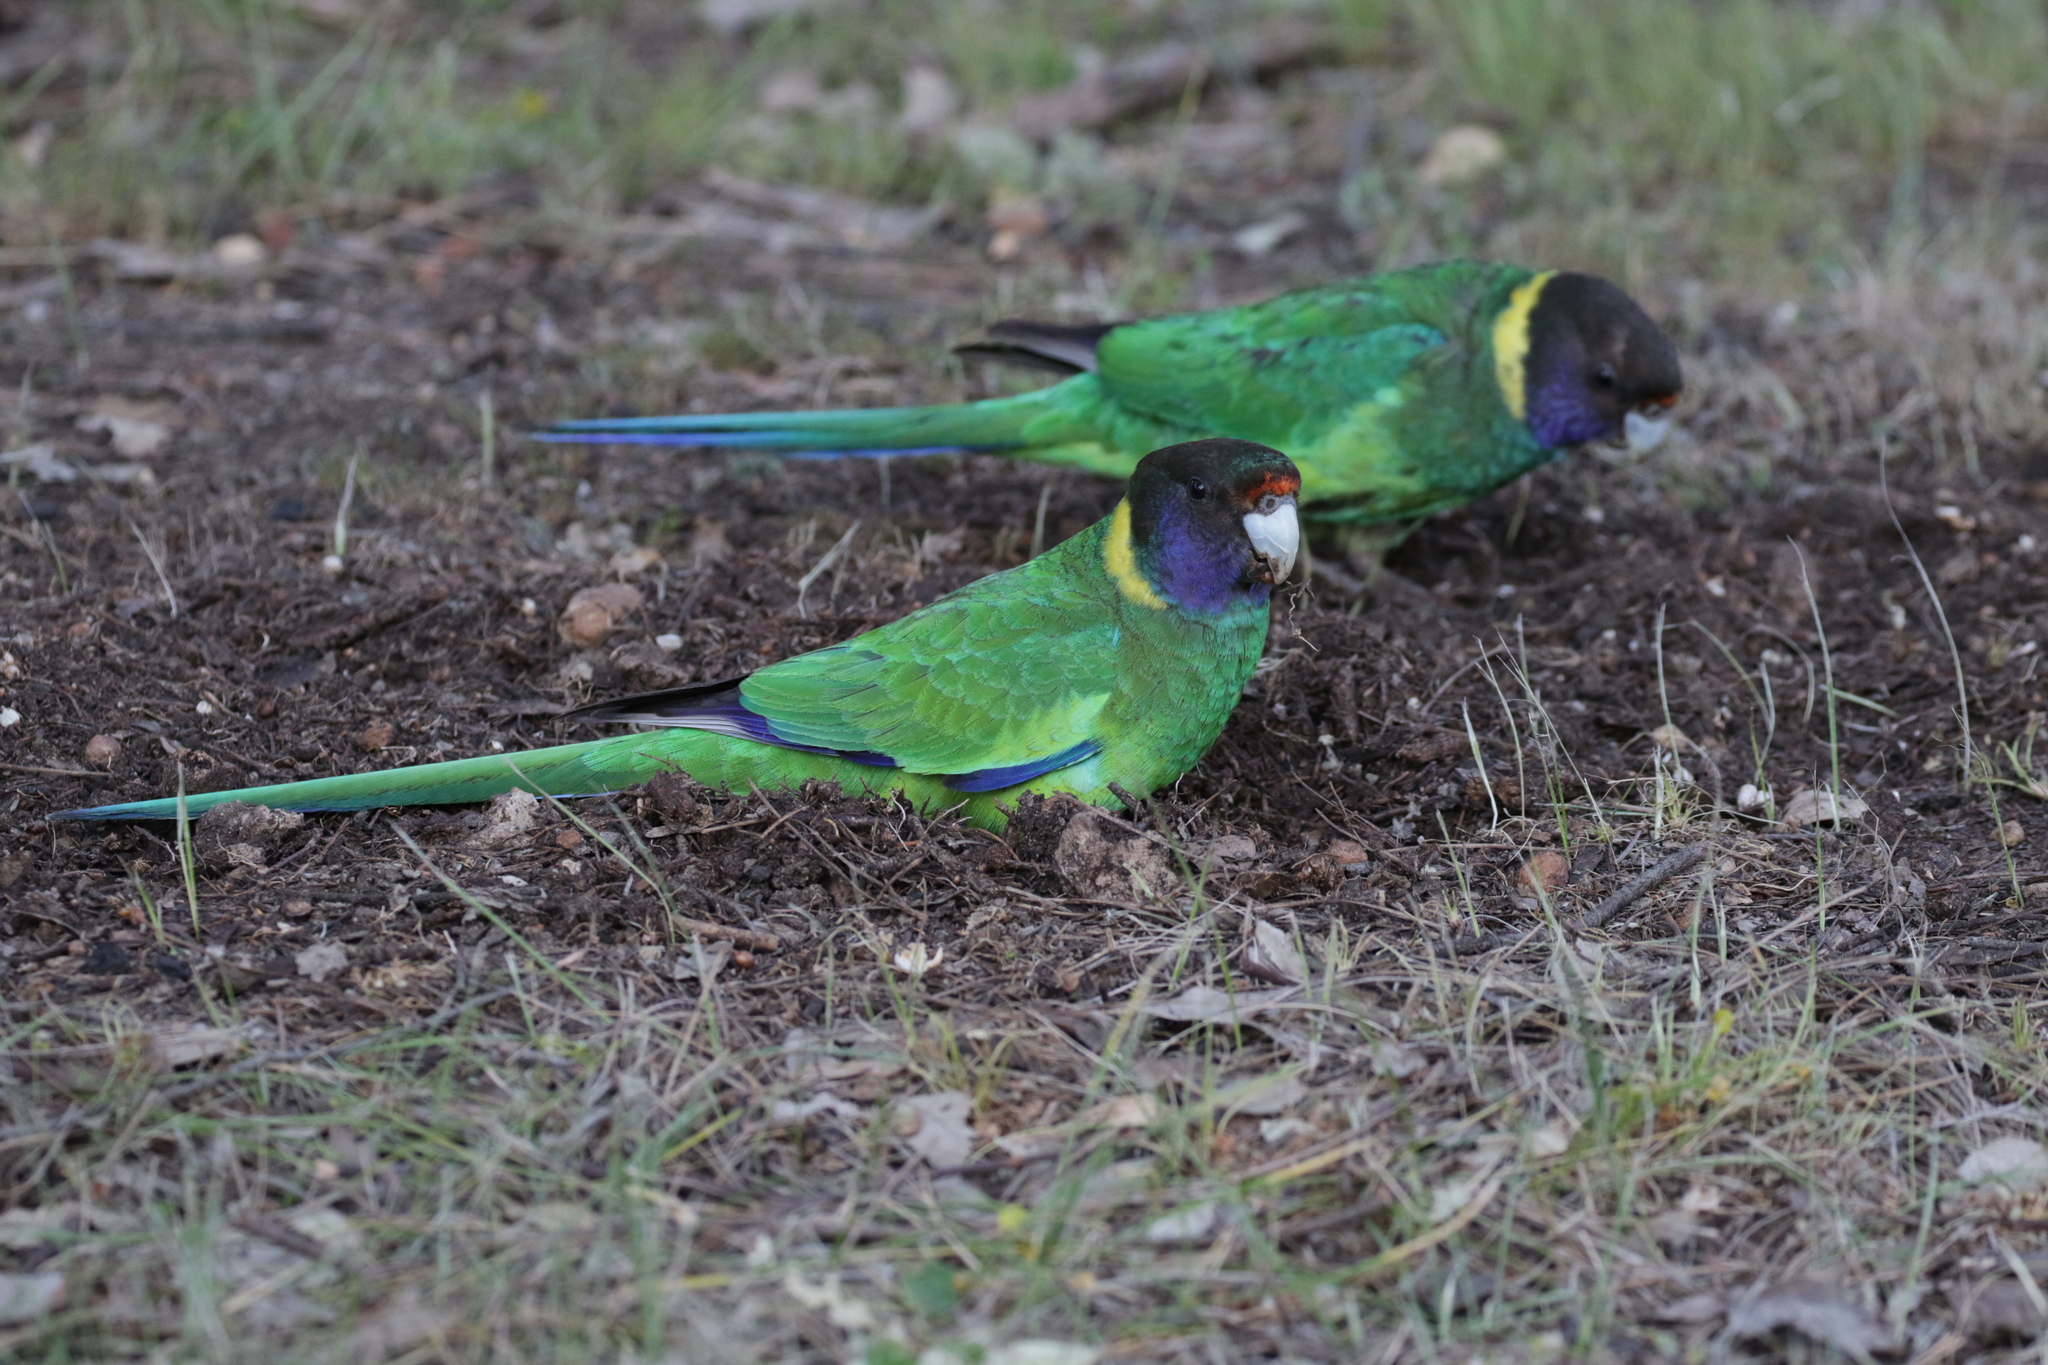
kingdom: Animalia
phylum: Chordata
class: Aves
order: Psittaciformes
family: Psittacidae
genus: Barnardius
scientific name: Barnardius zonarius
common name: Australian ringneck
